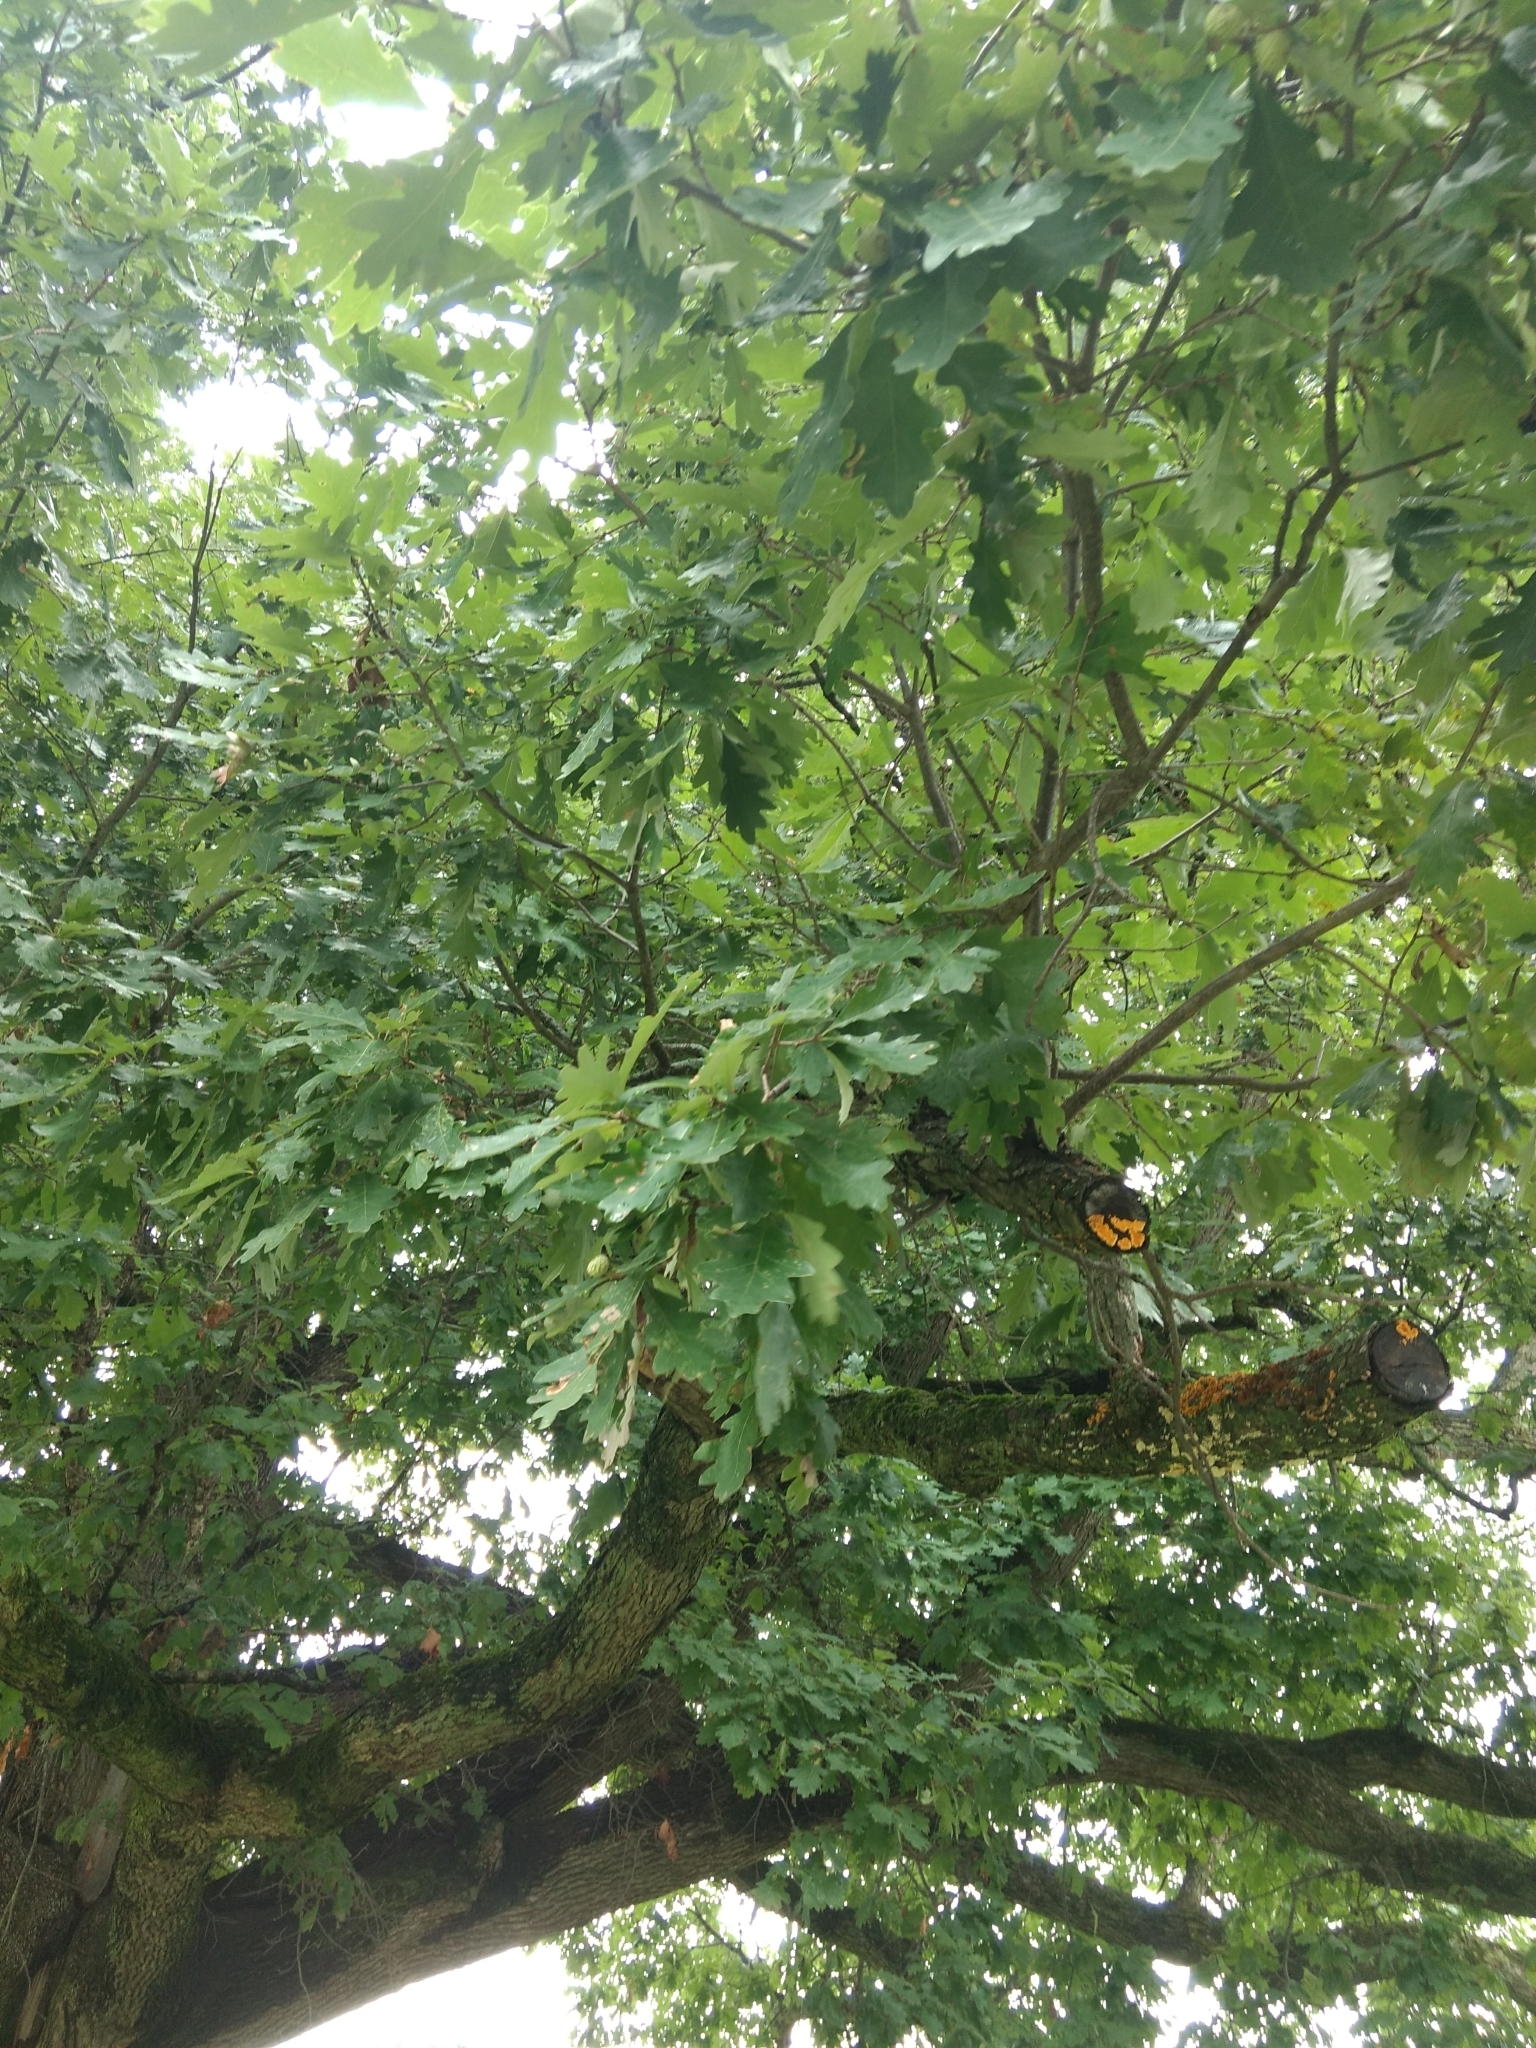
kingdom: Plantae
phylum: Tracheophyta
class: Magnoliopsida
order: Fagales
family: Fagaceae
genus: Quercus
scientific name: Quercus alba
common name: White oak
